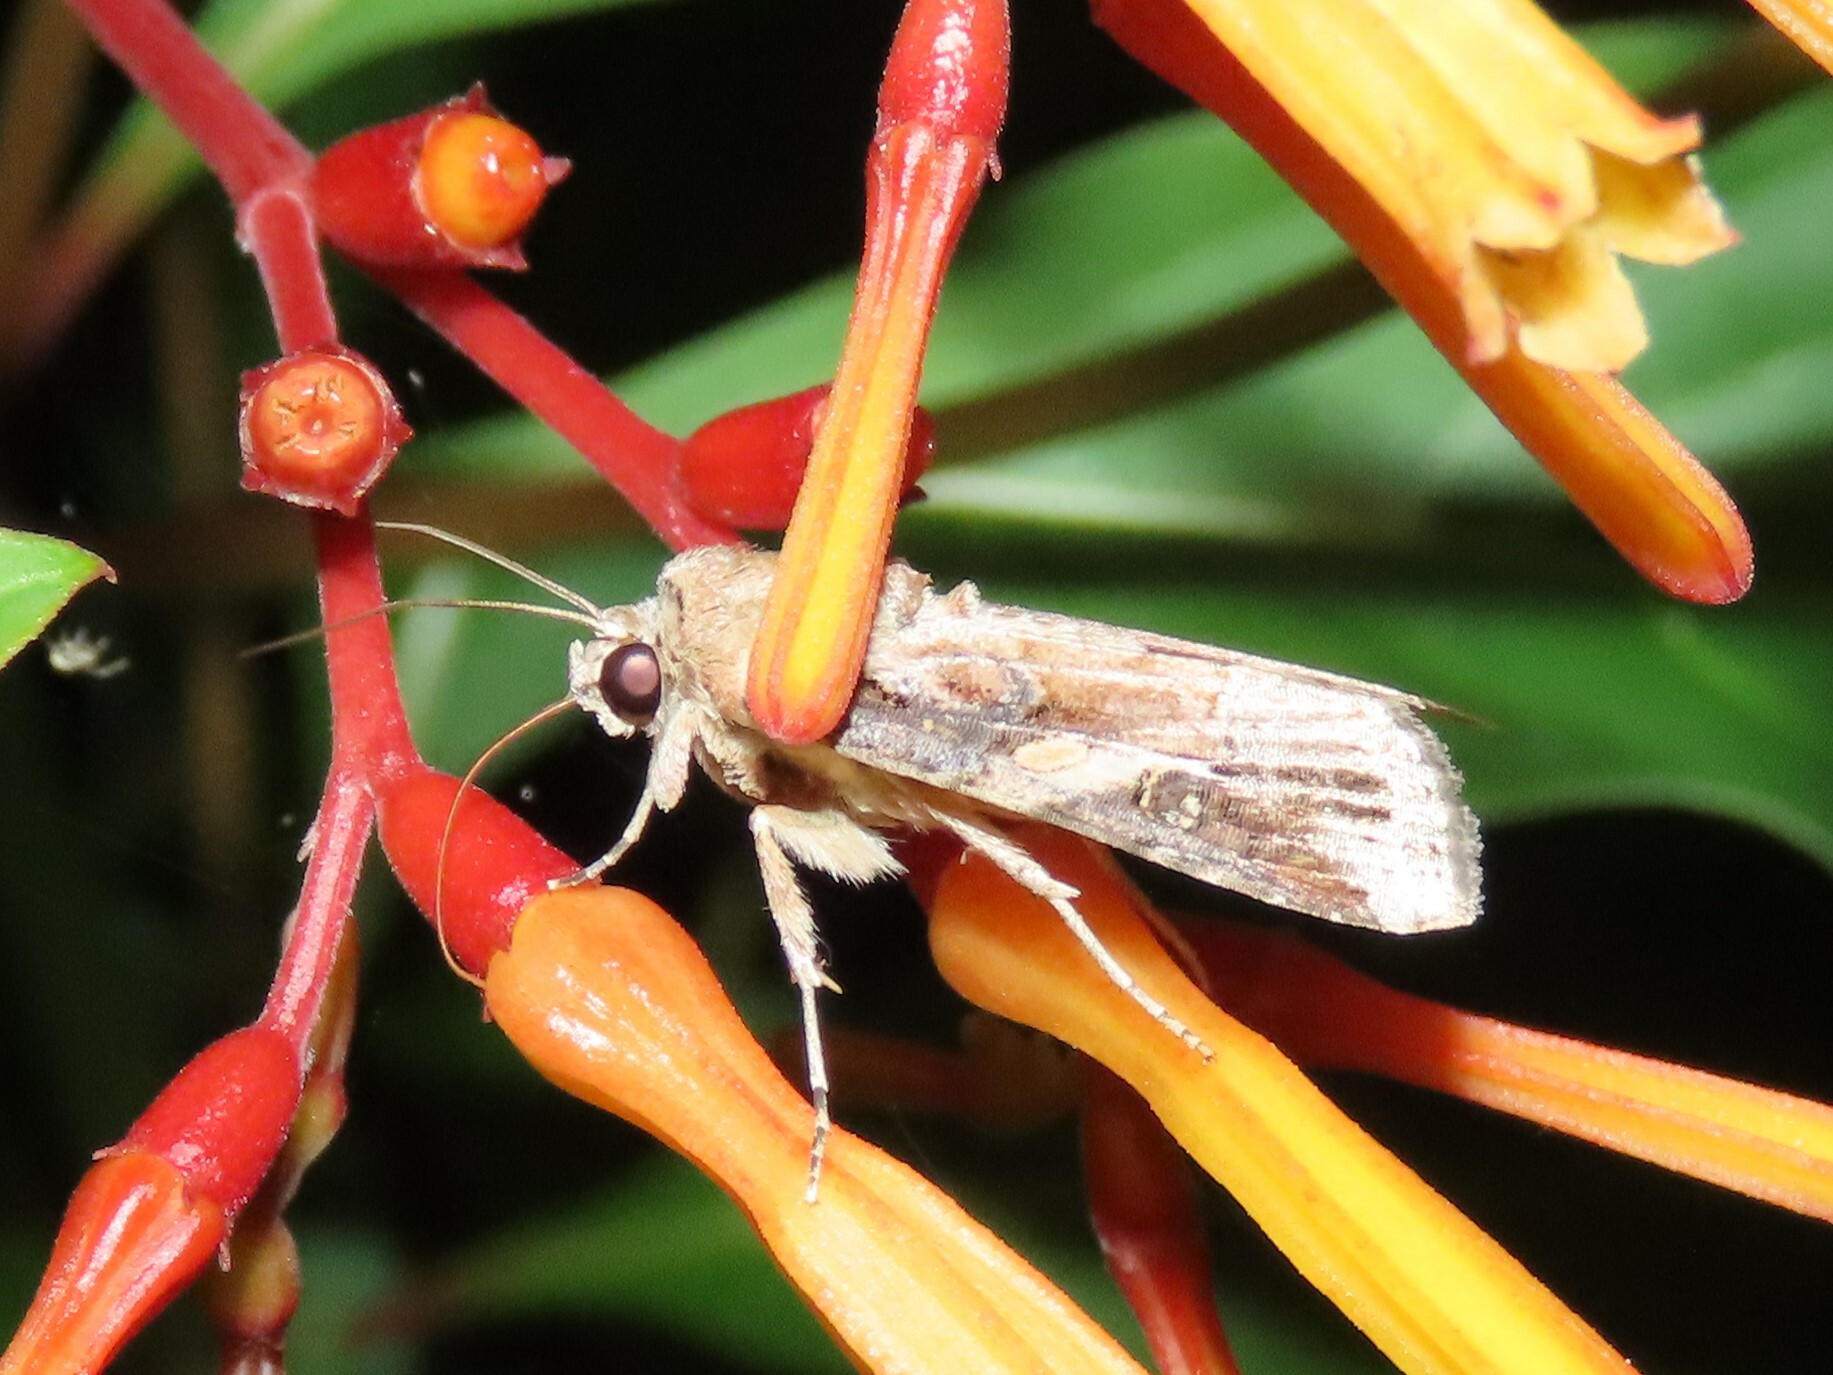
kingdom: Animalia
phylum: Arthropoda
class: Insecta
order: Lepidoptera
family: Noctuidae
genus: Spodoptera
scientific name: Spodoptera frugiperda
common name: Fall armyworm
